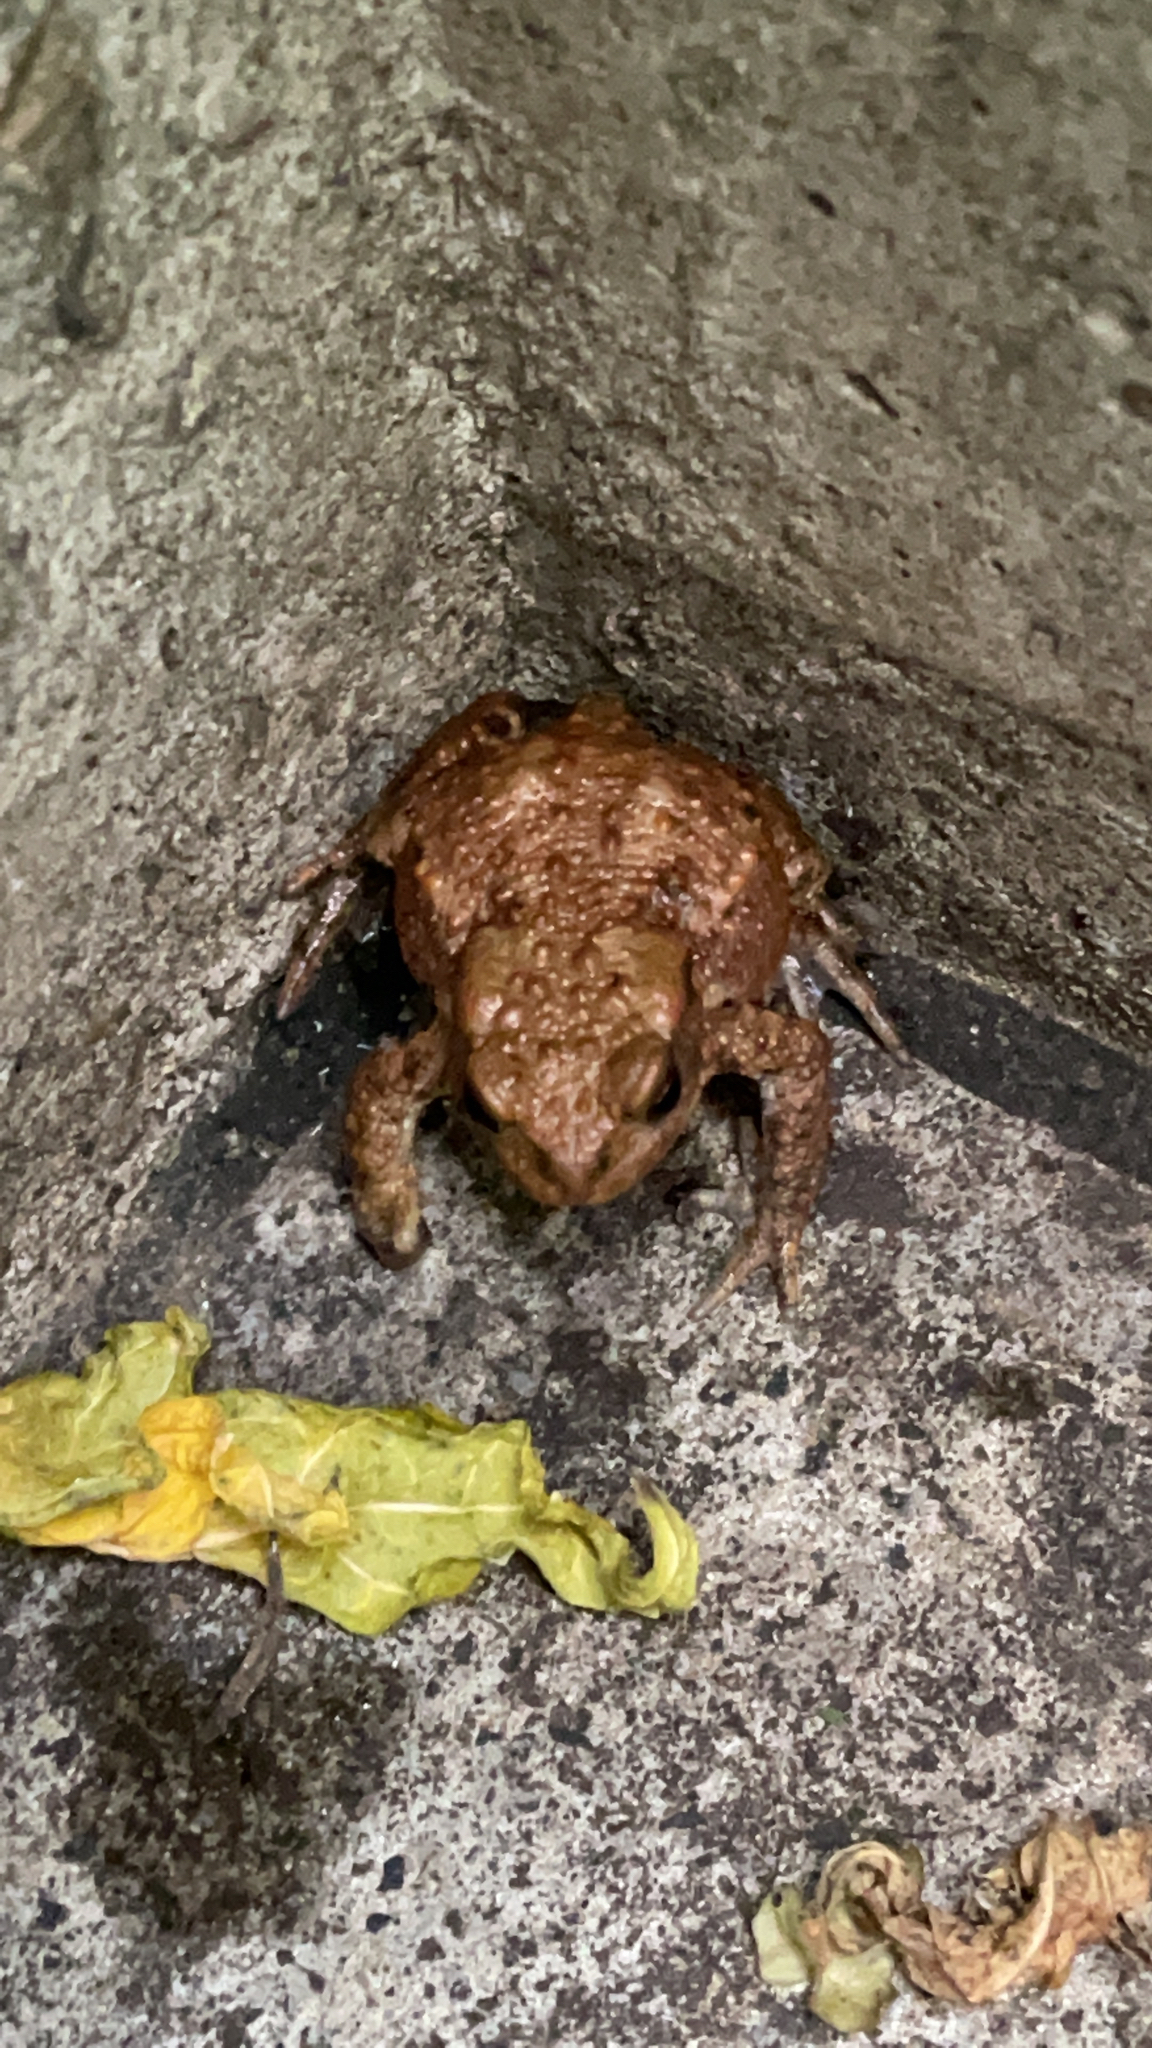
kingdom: Animalia
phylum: Chordata
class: Amphibia
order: Anura
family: Bufonidae
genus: Bufo
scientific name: Bufo bufo
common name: Common toad
